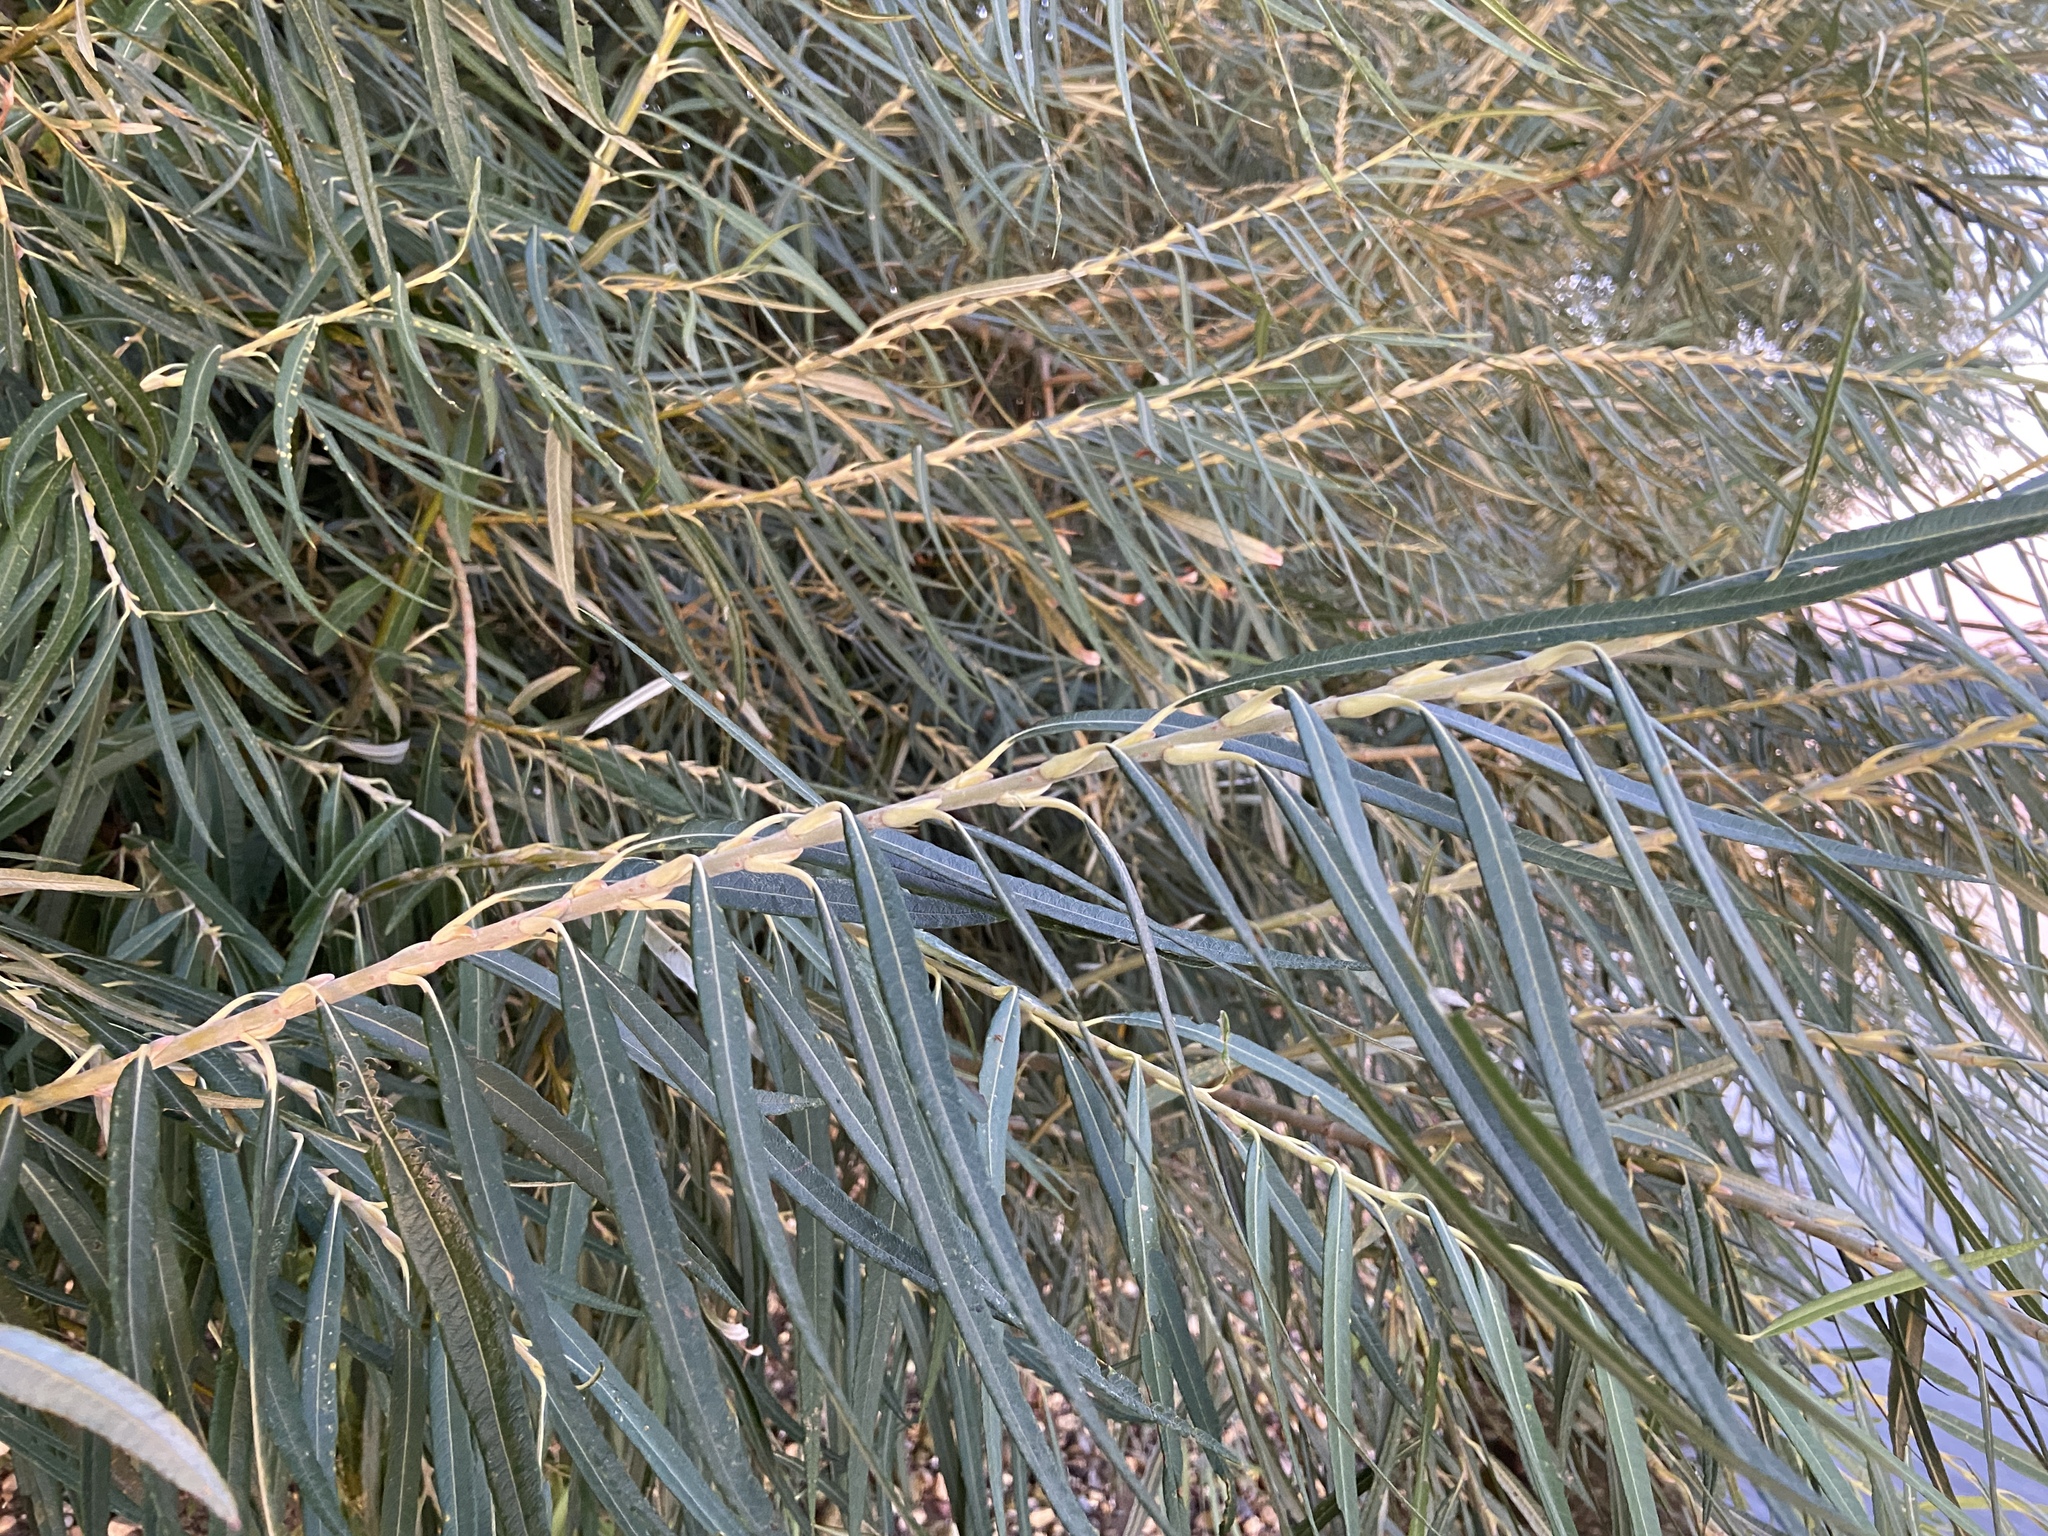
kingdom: Plantae
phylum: Tracheophyta
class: Magnoliopsida
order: Malpighiales
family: Salicaceae
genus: Salix
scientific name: Salix viminalis
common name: Osier
